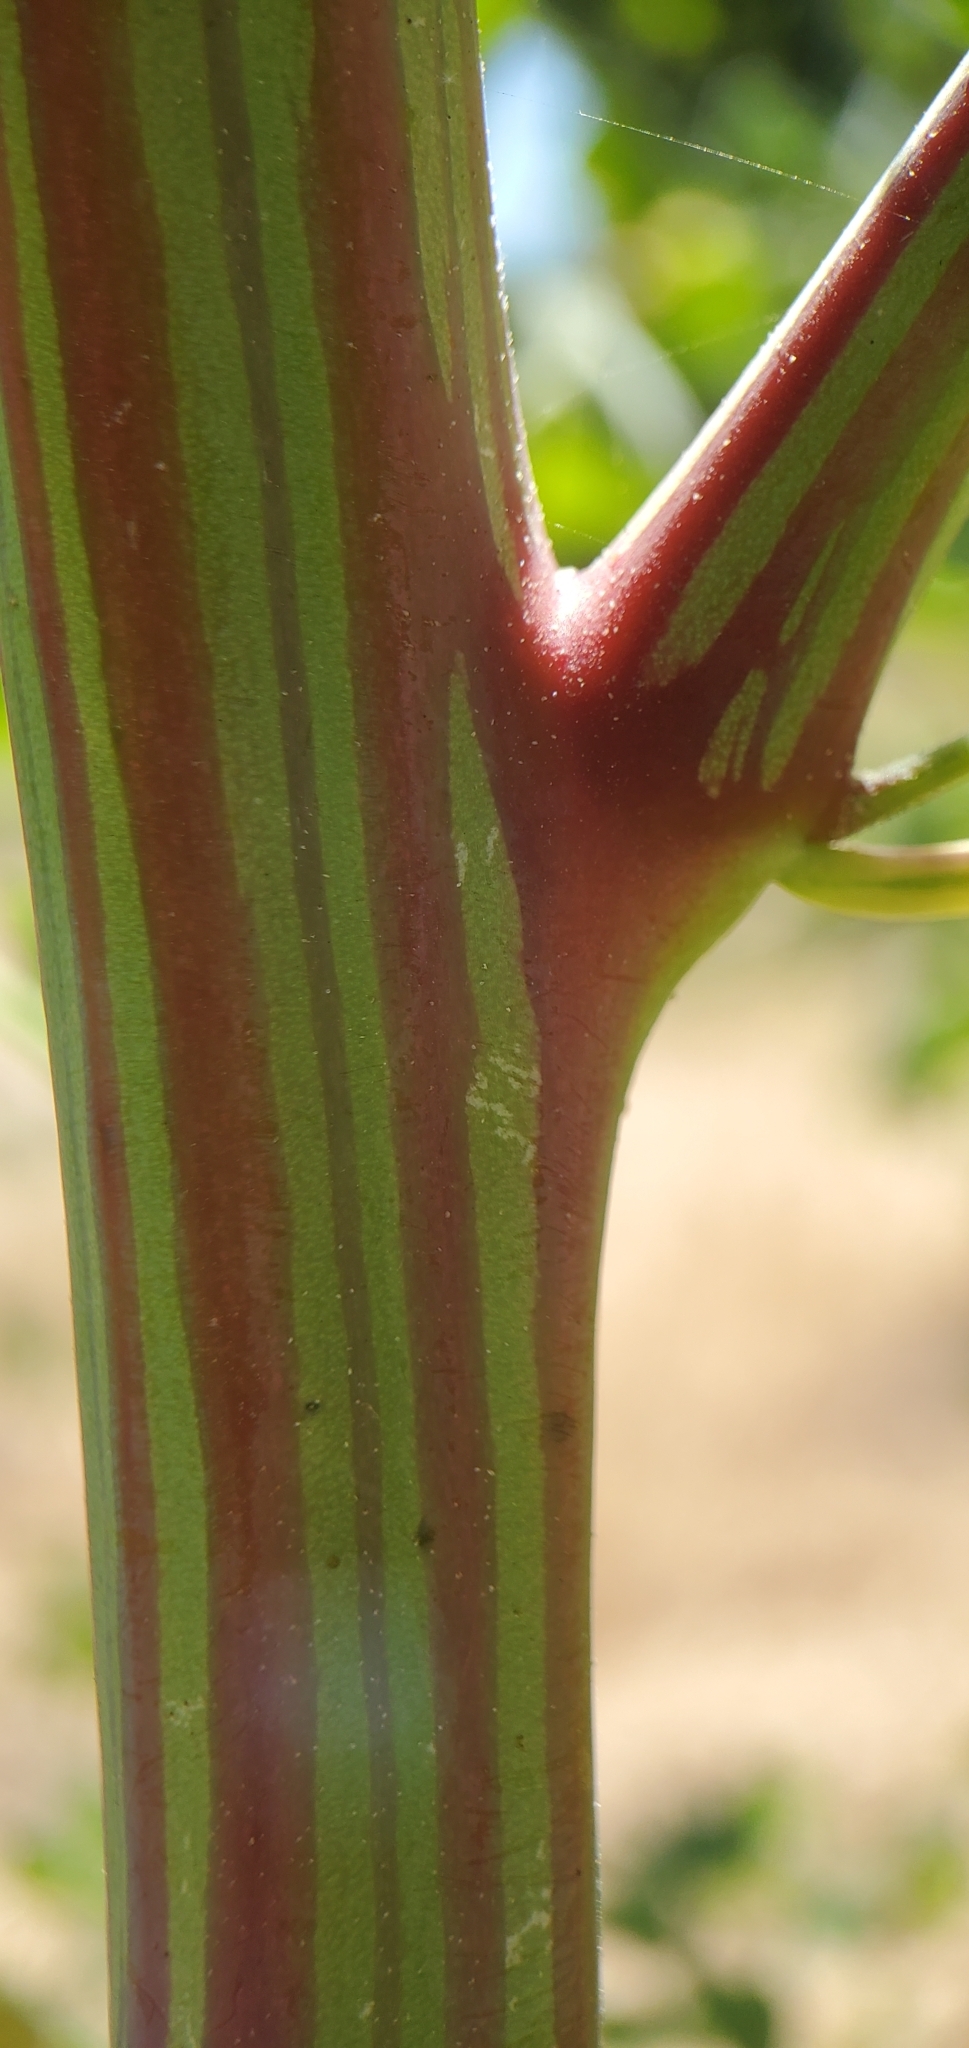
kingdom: Plantae
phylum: Tracheophyta
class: Magnoliopsida
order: Caryophyllales
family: Amaranthaceae
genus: Chenopodium
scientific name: Chenopodium berlandieri
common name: Pit-seed goosefoot
